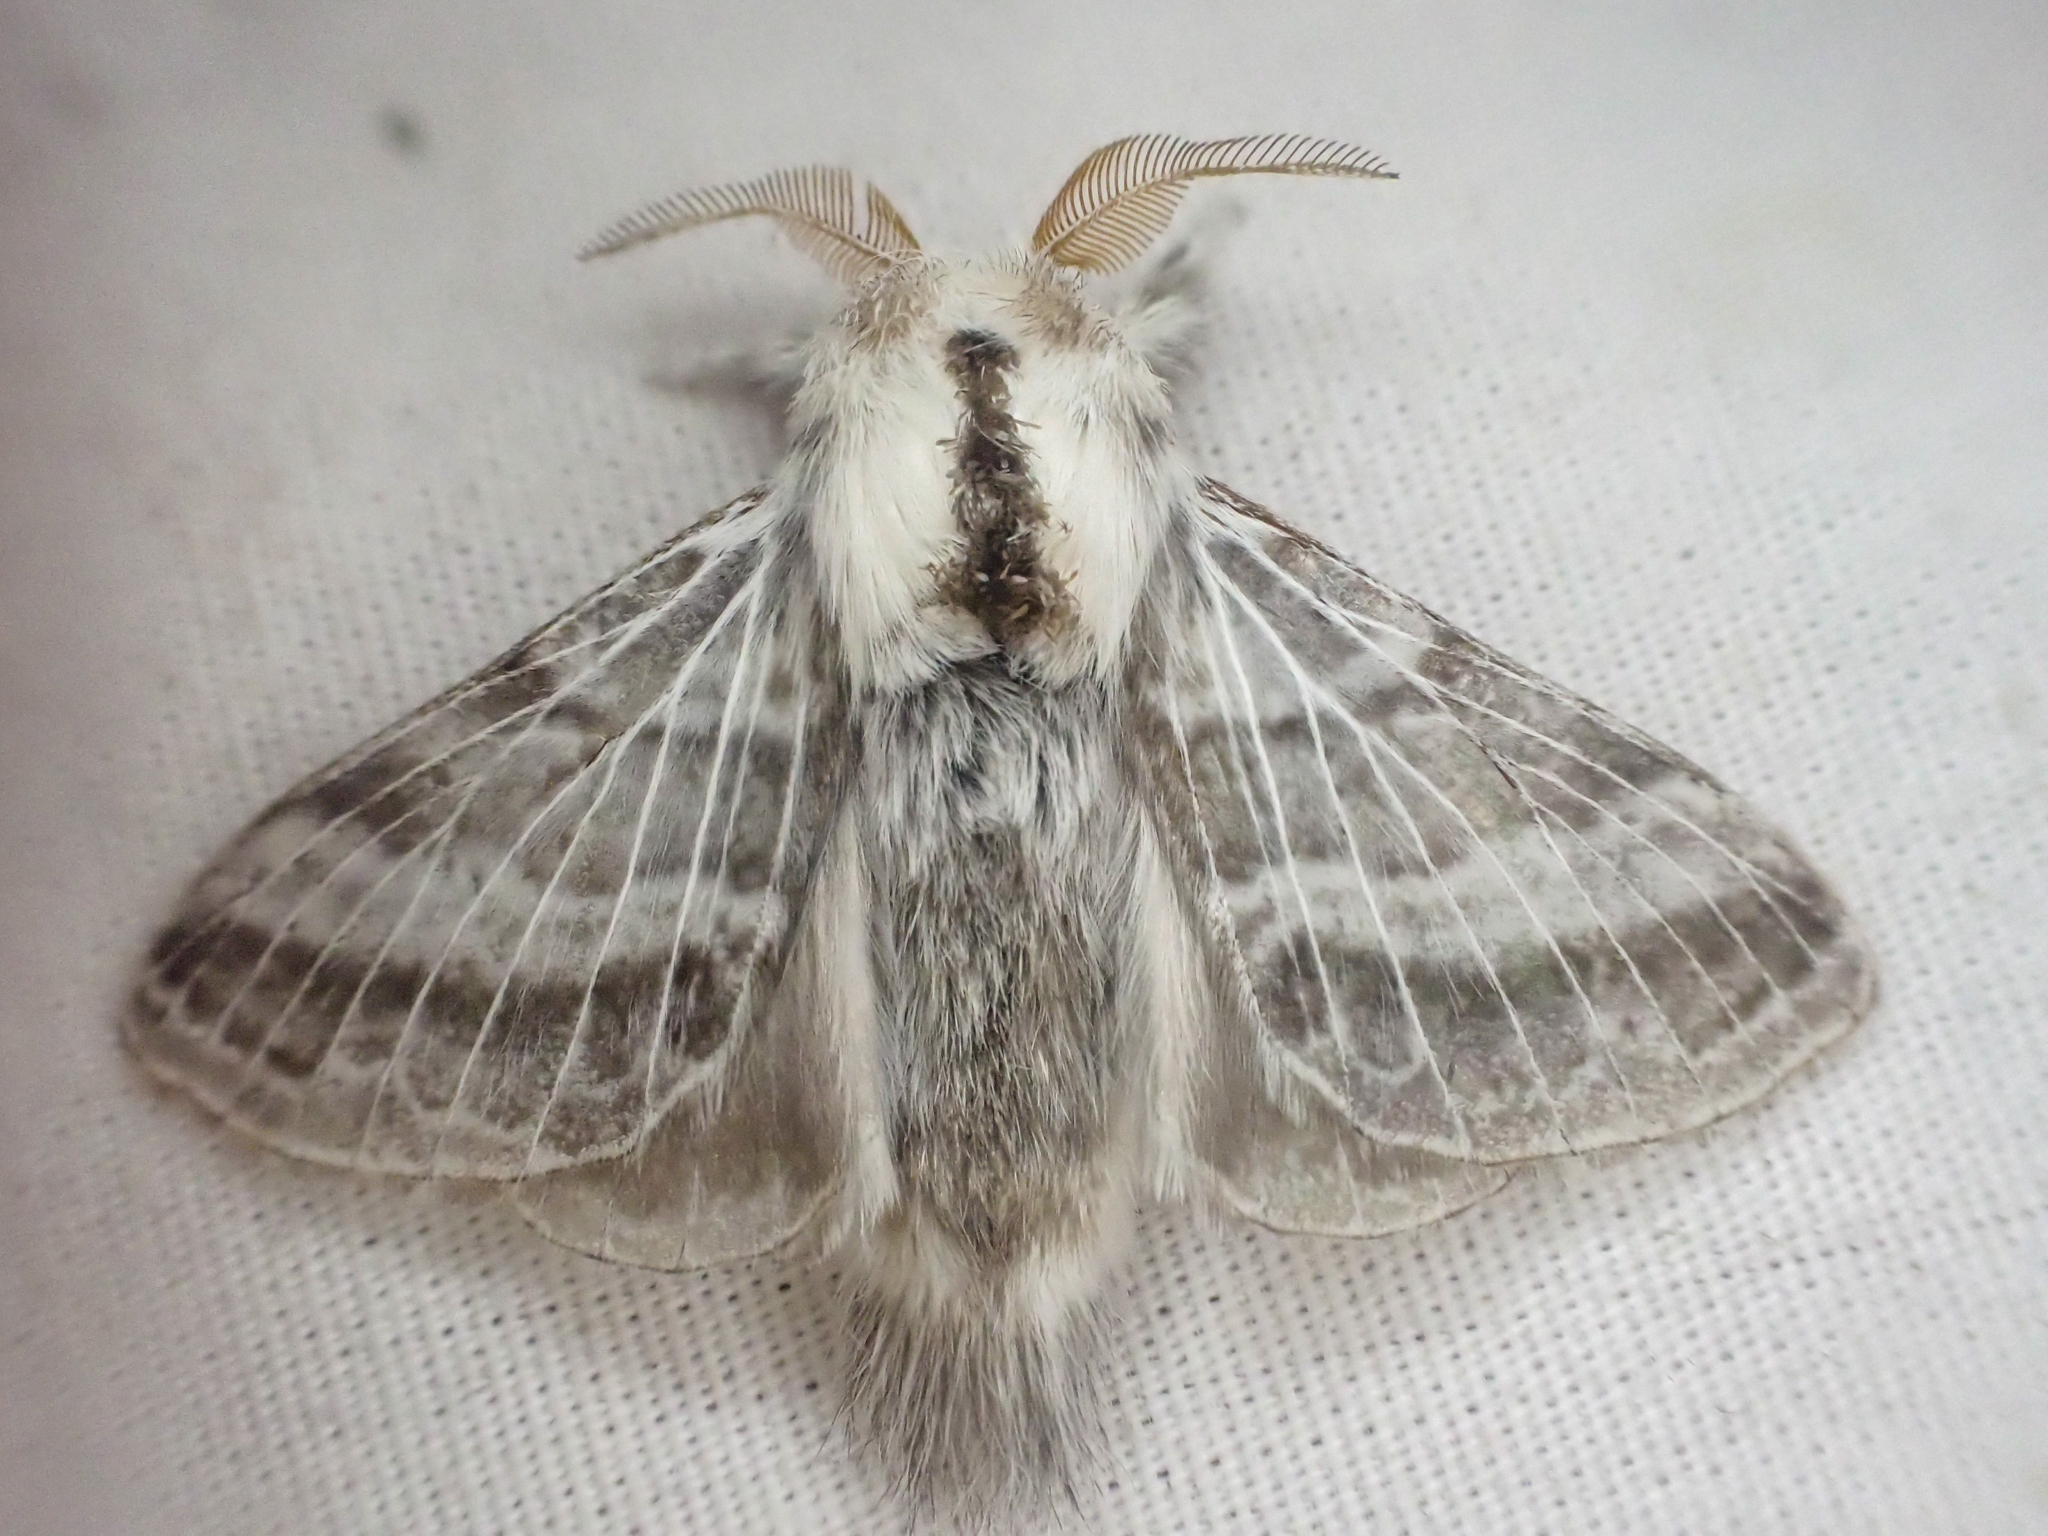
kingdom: Animalia
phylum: Arthropoda
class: Insecta
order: Lepidoptera
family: Lasiocampidae
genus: Tolype
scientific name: Tolype distincta
